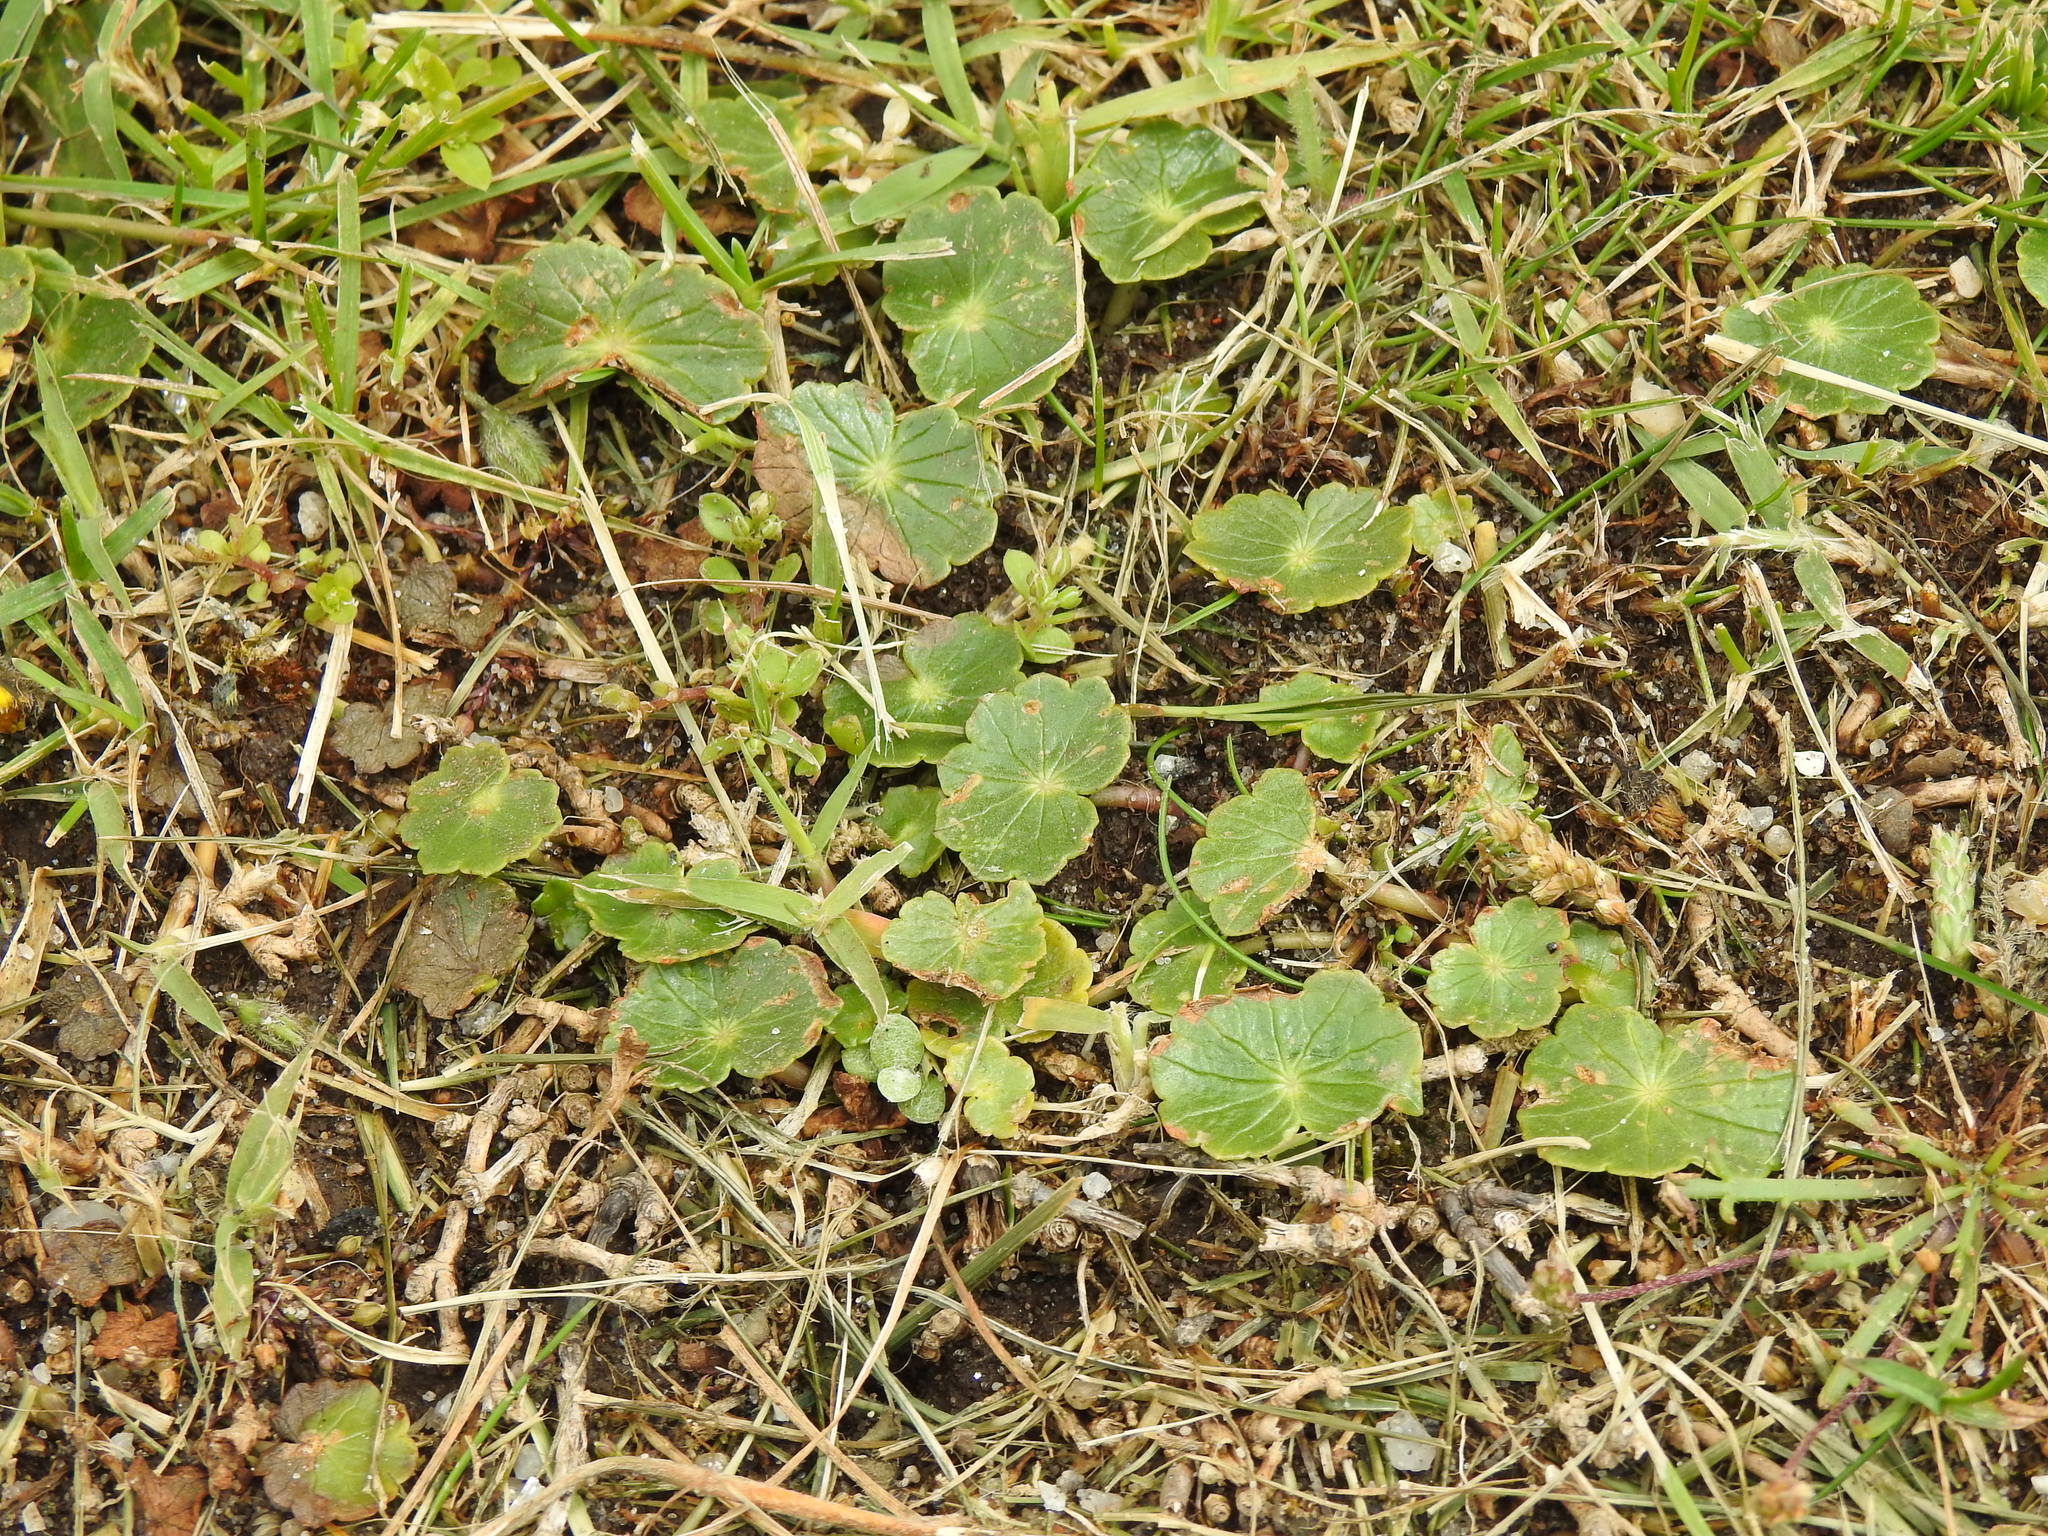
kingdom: Plantae
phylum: Tracheophyta
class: Magnoliopsida
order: Apiales
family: Araliaceae
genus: Hydrocotyle
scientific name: Hydrocotyle bonariensis
